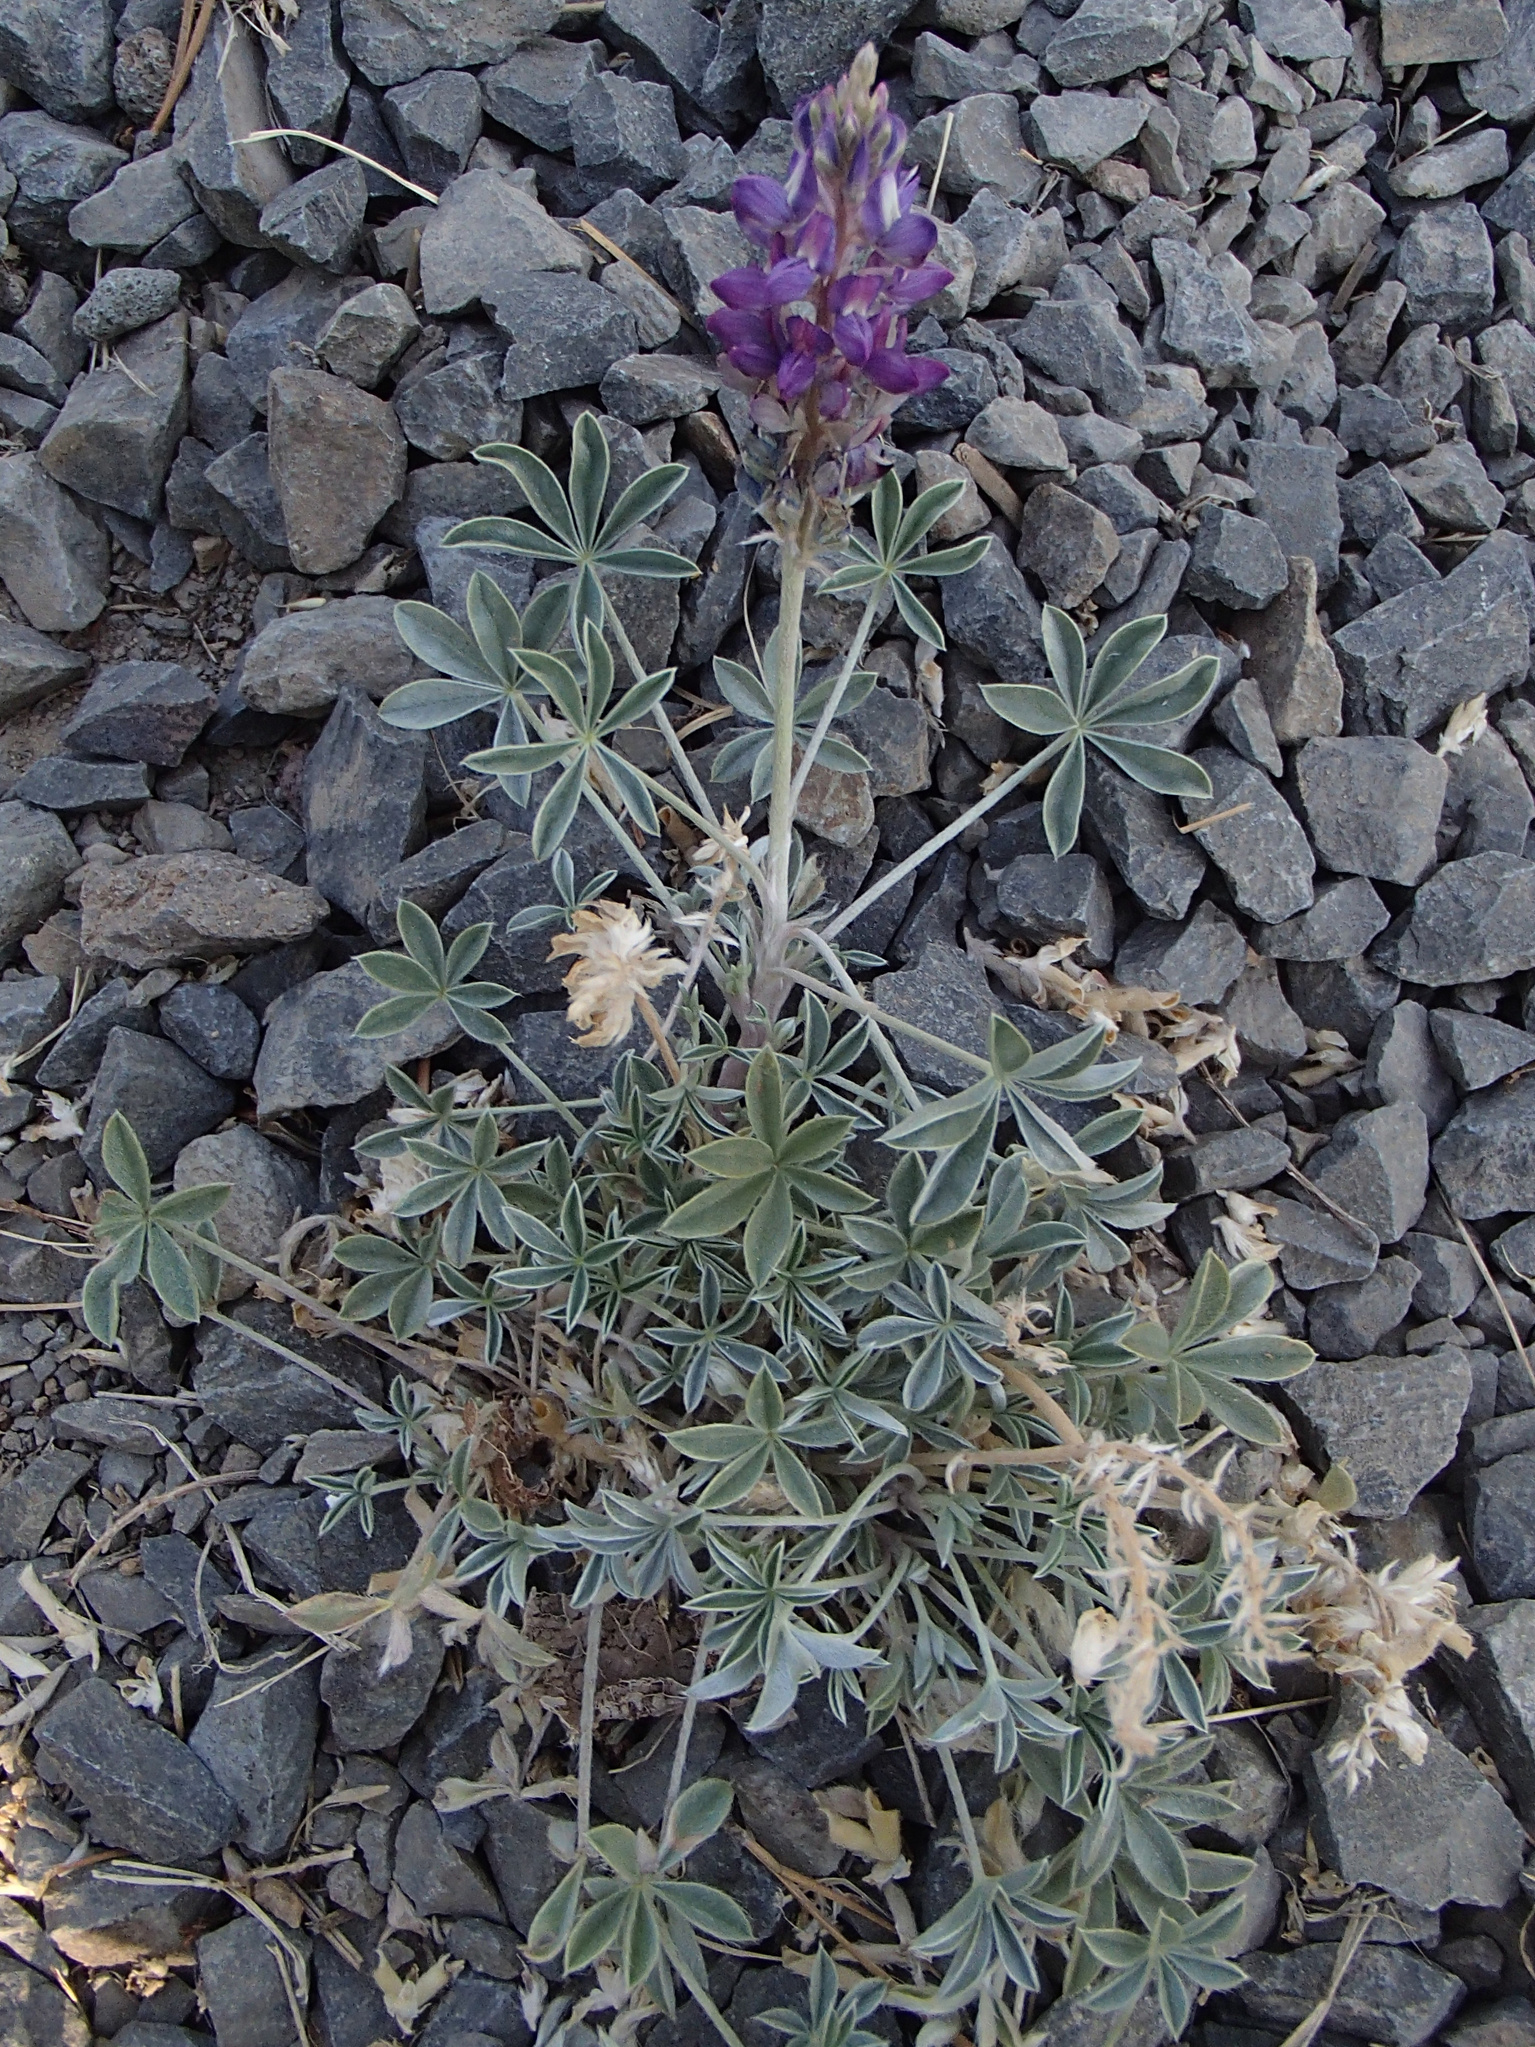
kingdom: Plantae
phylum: Tracheophyta
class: Magnoliopsida
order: Fabales
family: Fabaceae
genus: Lupinus
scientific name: Lupinus lepidus
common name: Prairie lupine
